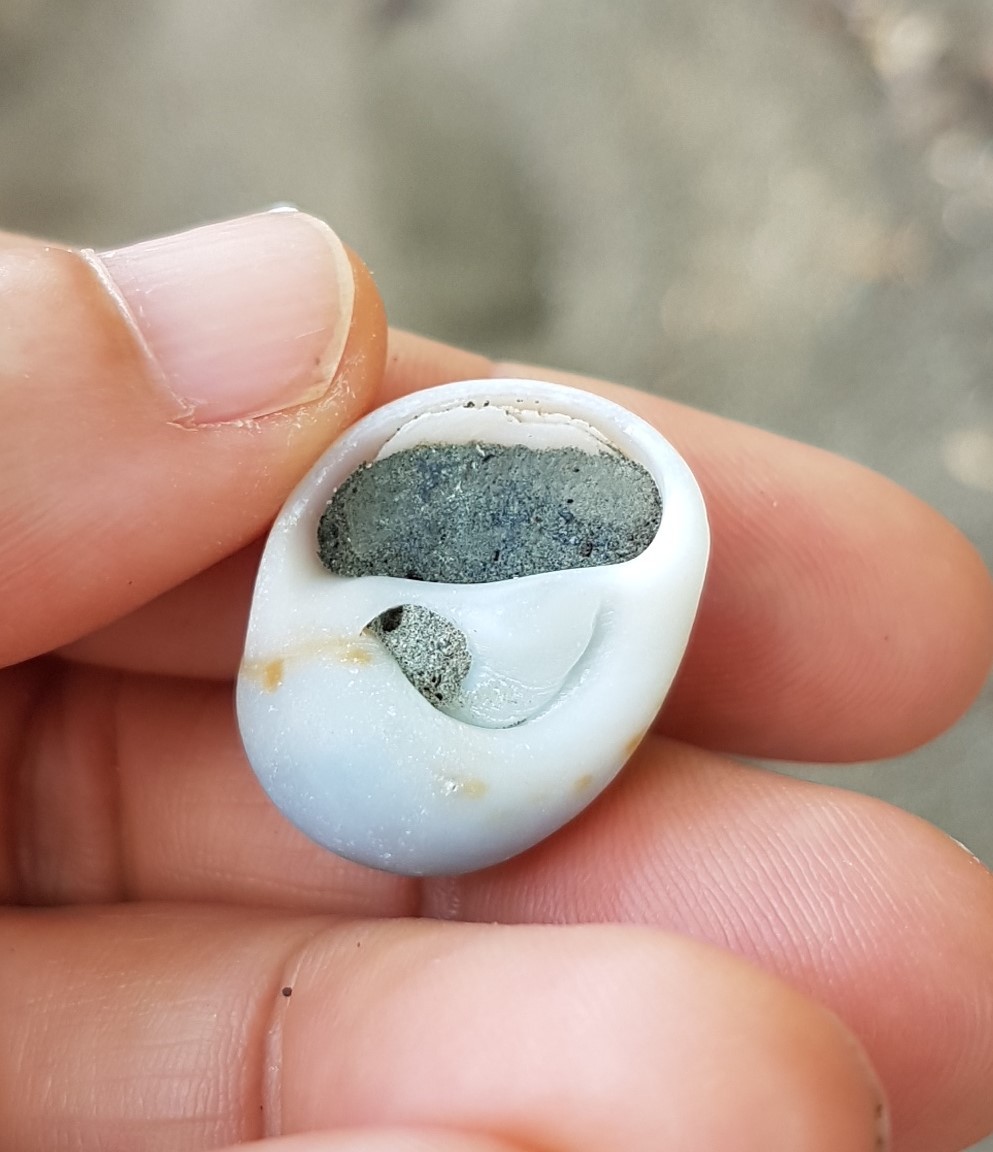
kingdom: Animalia
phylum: Mollusca
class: Gastropoda
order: Littorinimorpha
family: Naticidae
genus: Natica
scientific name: Natica broderipiana
